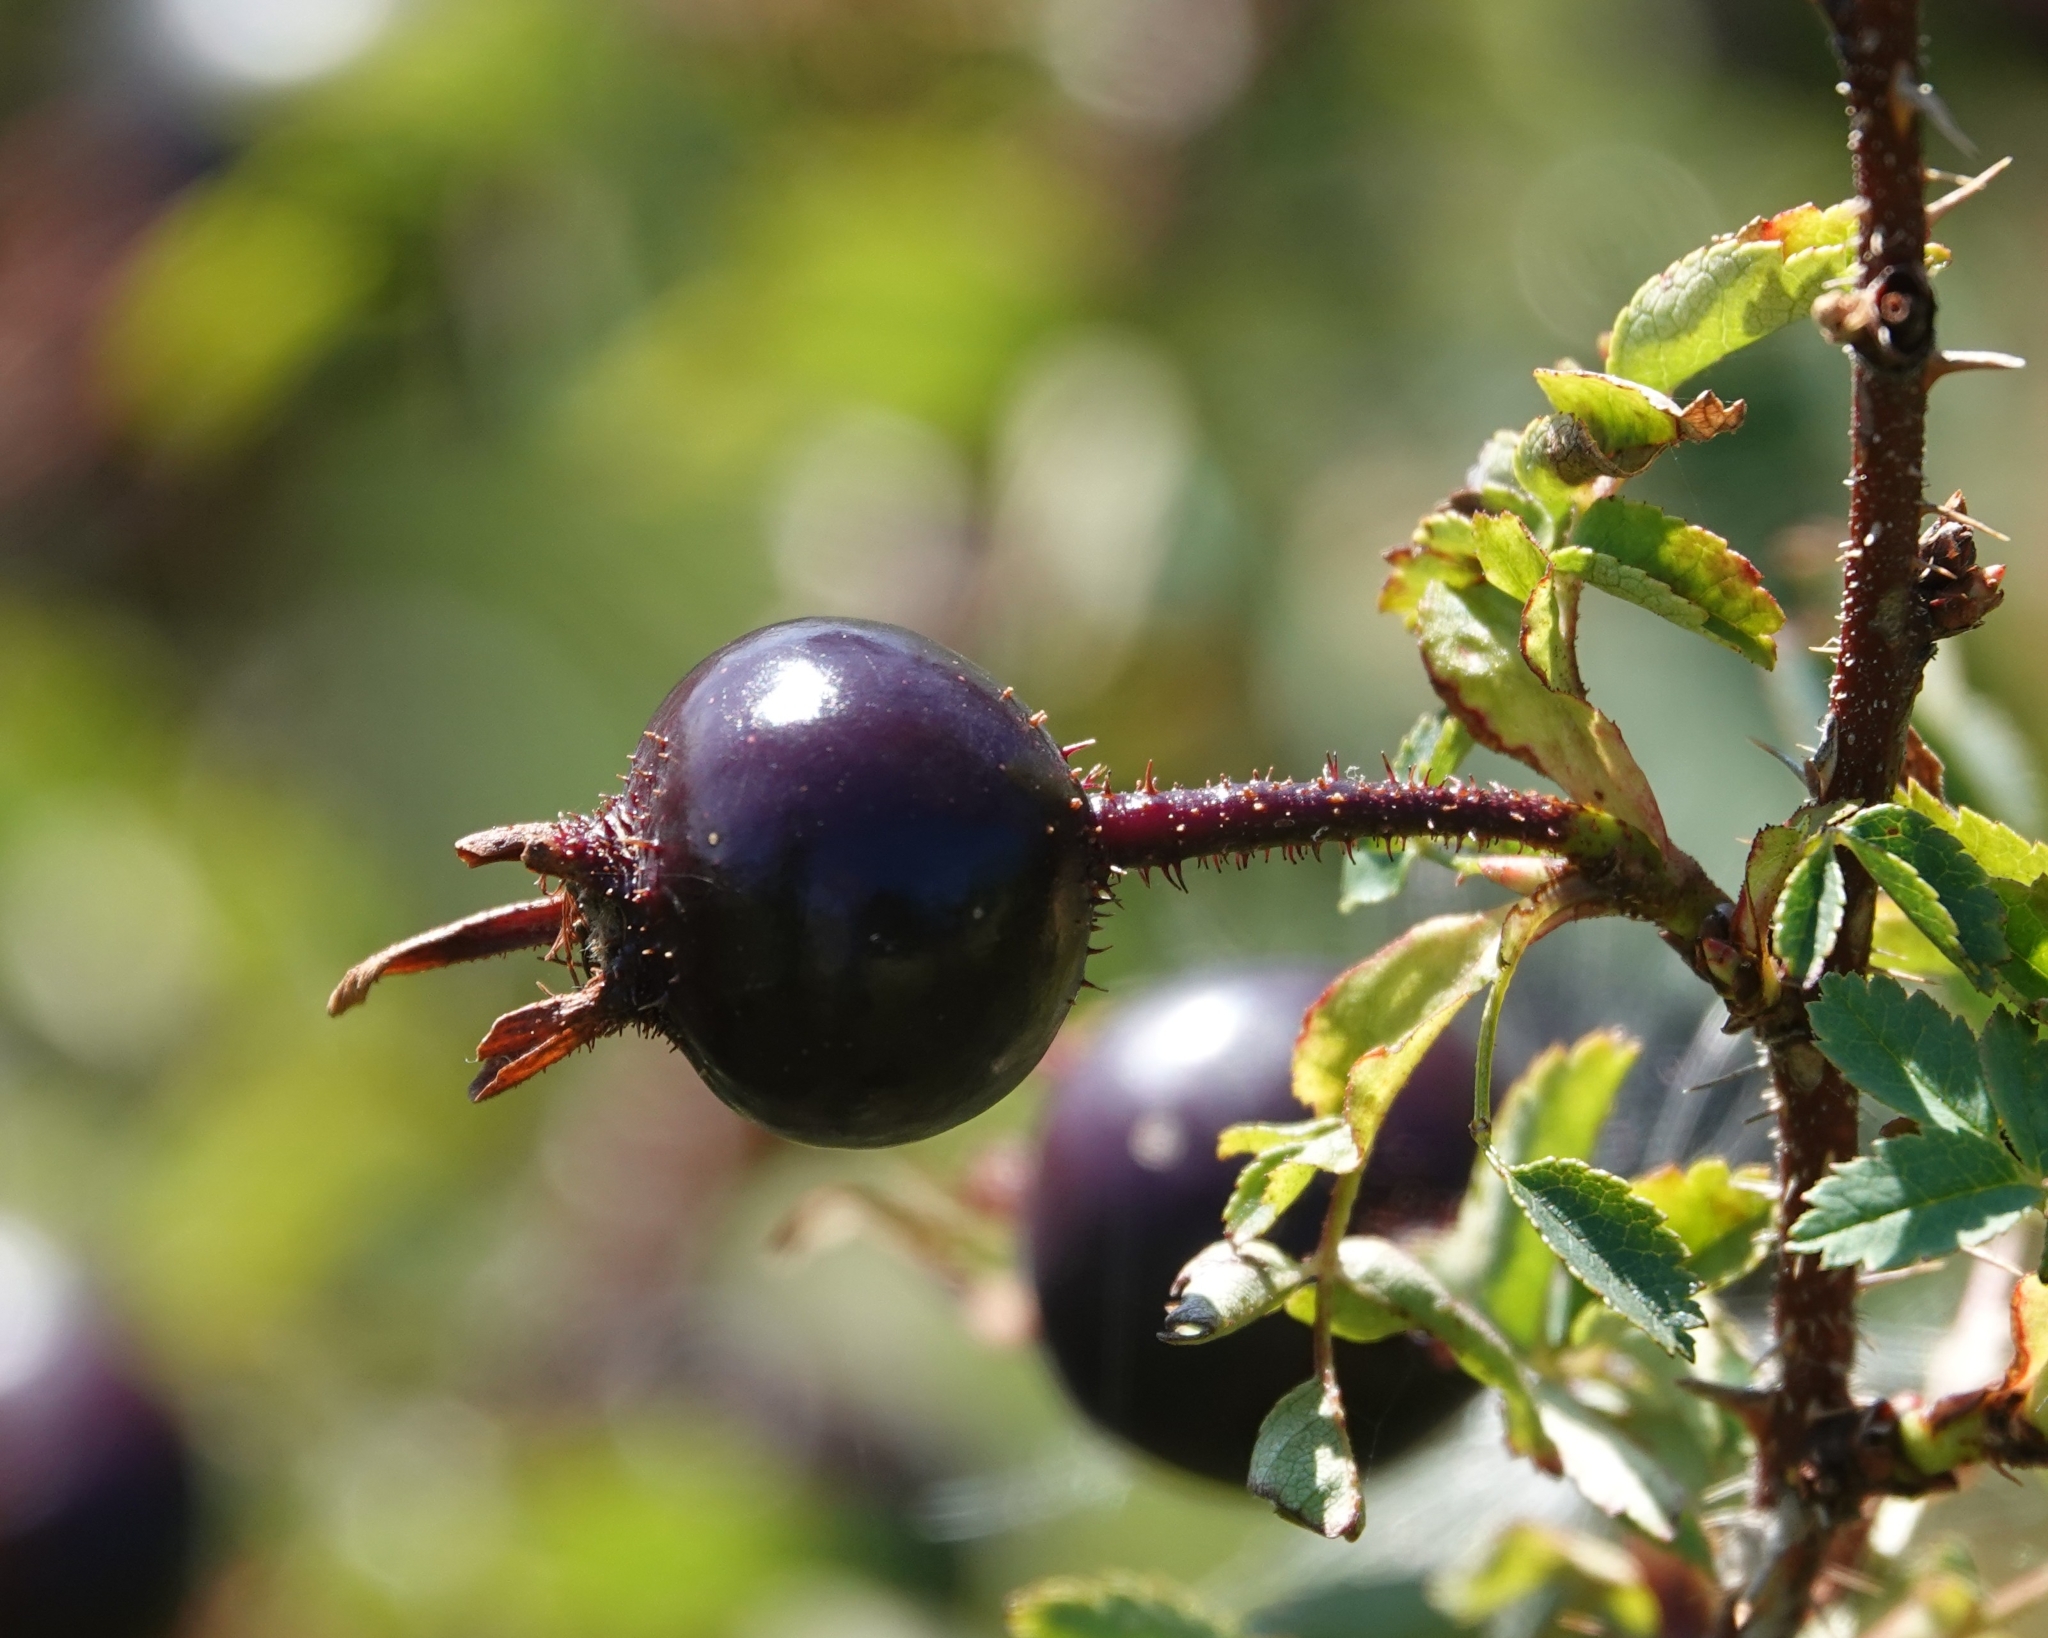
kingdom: Plantae
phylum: Tracheophyta
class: Magnoliopsida
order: Rosales
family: Rosaceae
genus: Rosa
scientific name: Rosa spinosissima
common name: Burnet rose
